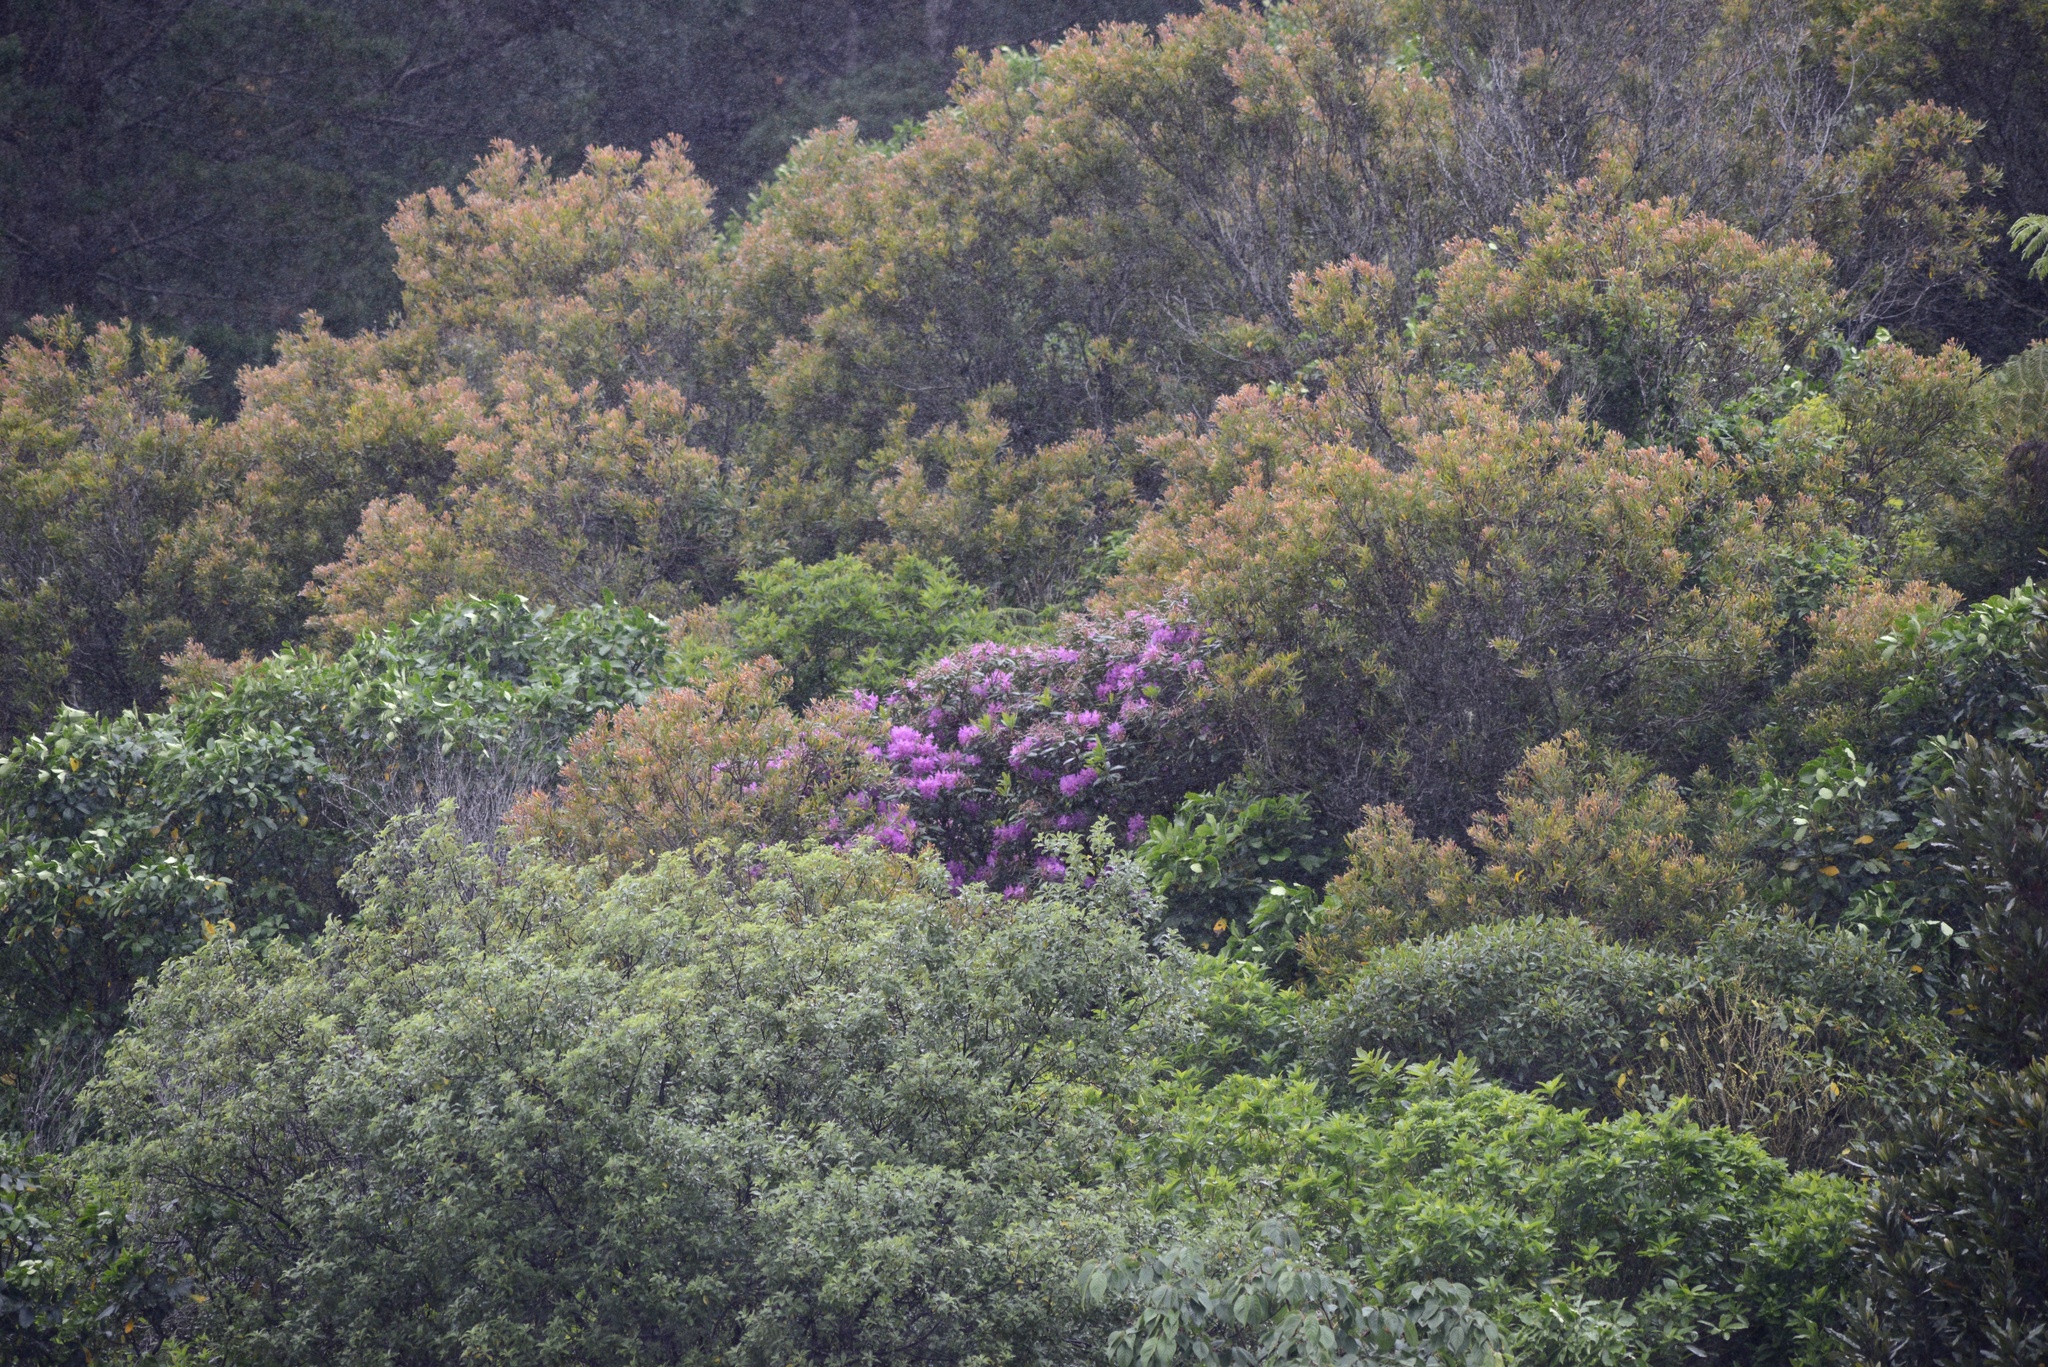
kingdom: Plantae
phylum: Tracheophyta
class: Magnoliopsida
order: Ericales
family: Ericaceae
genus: Rhododendron
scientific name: Rhododendron ponticum
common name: Rhododendron
